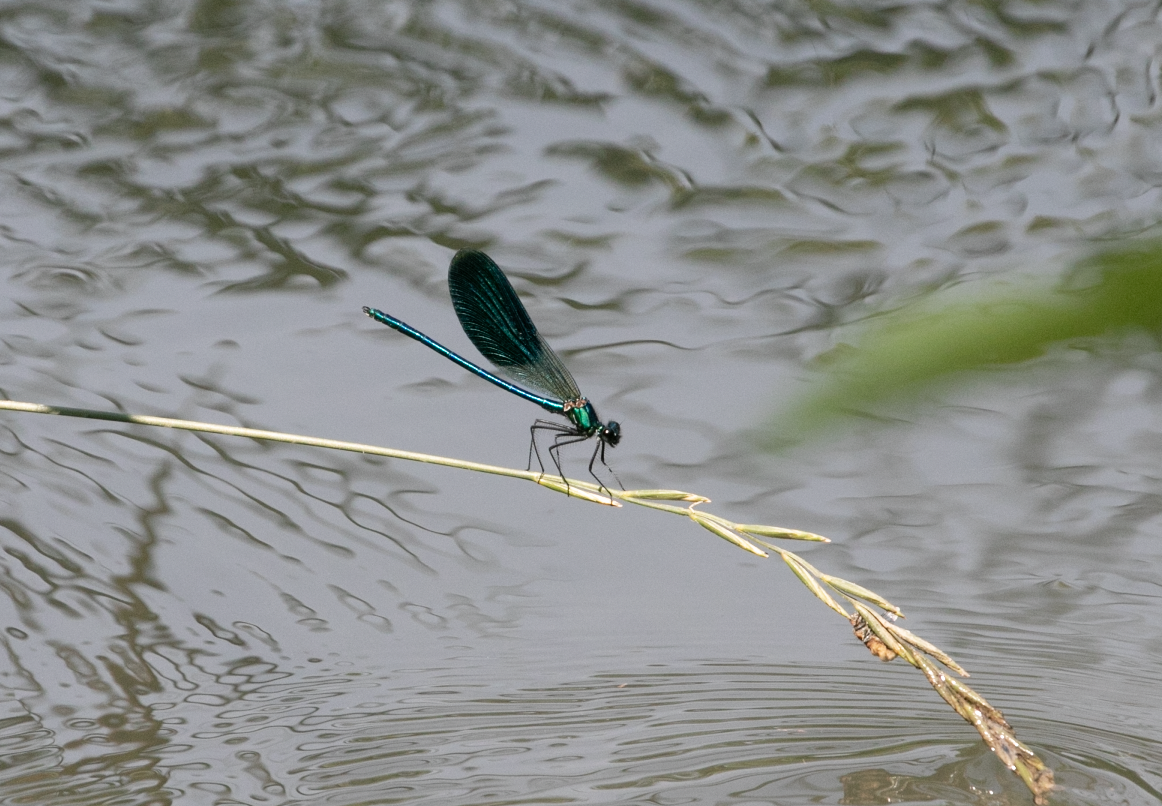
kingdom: Animalia
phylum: Arthropoda
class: Insecta
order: Odonata
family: Calopterygidae
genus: Calopteryx
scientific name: Calopteryx splendens
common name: Banded demoiselle
